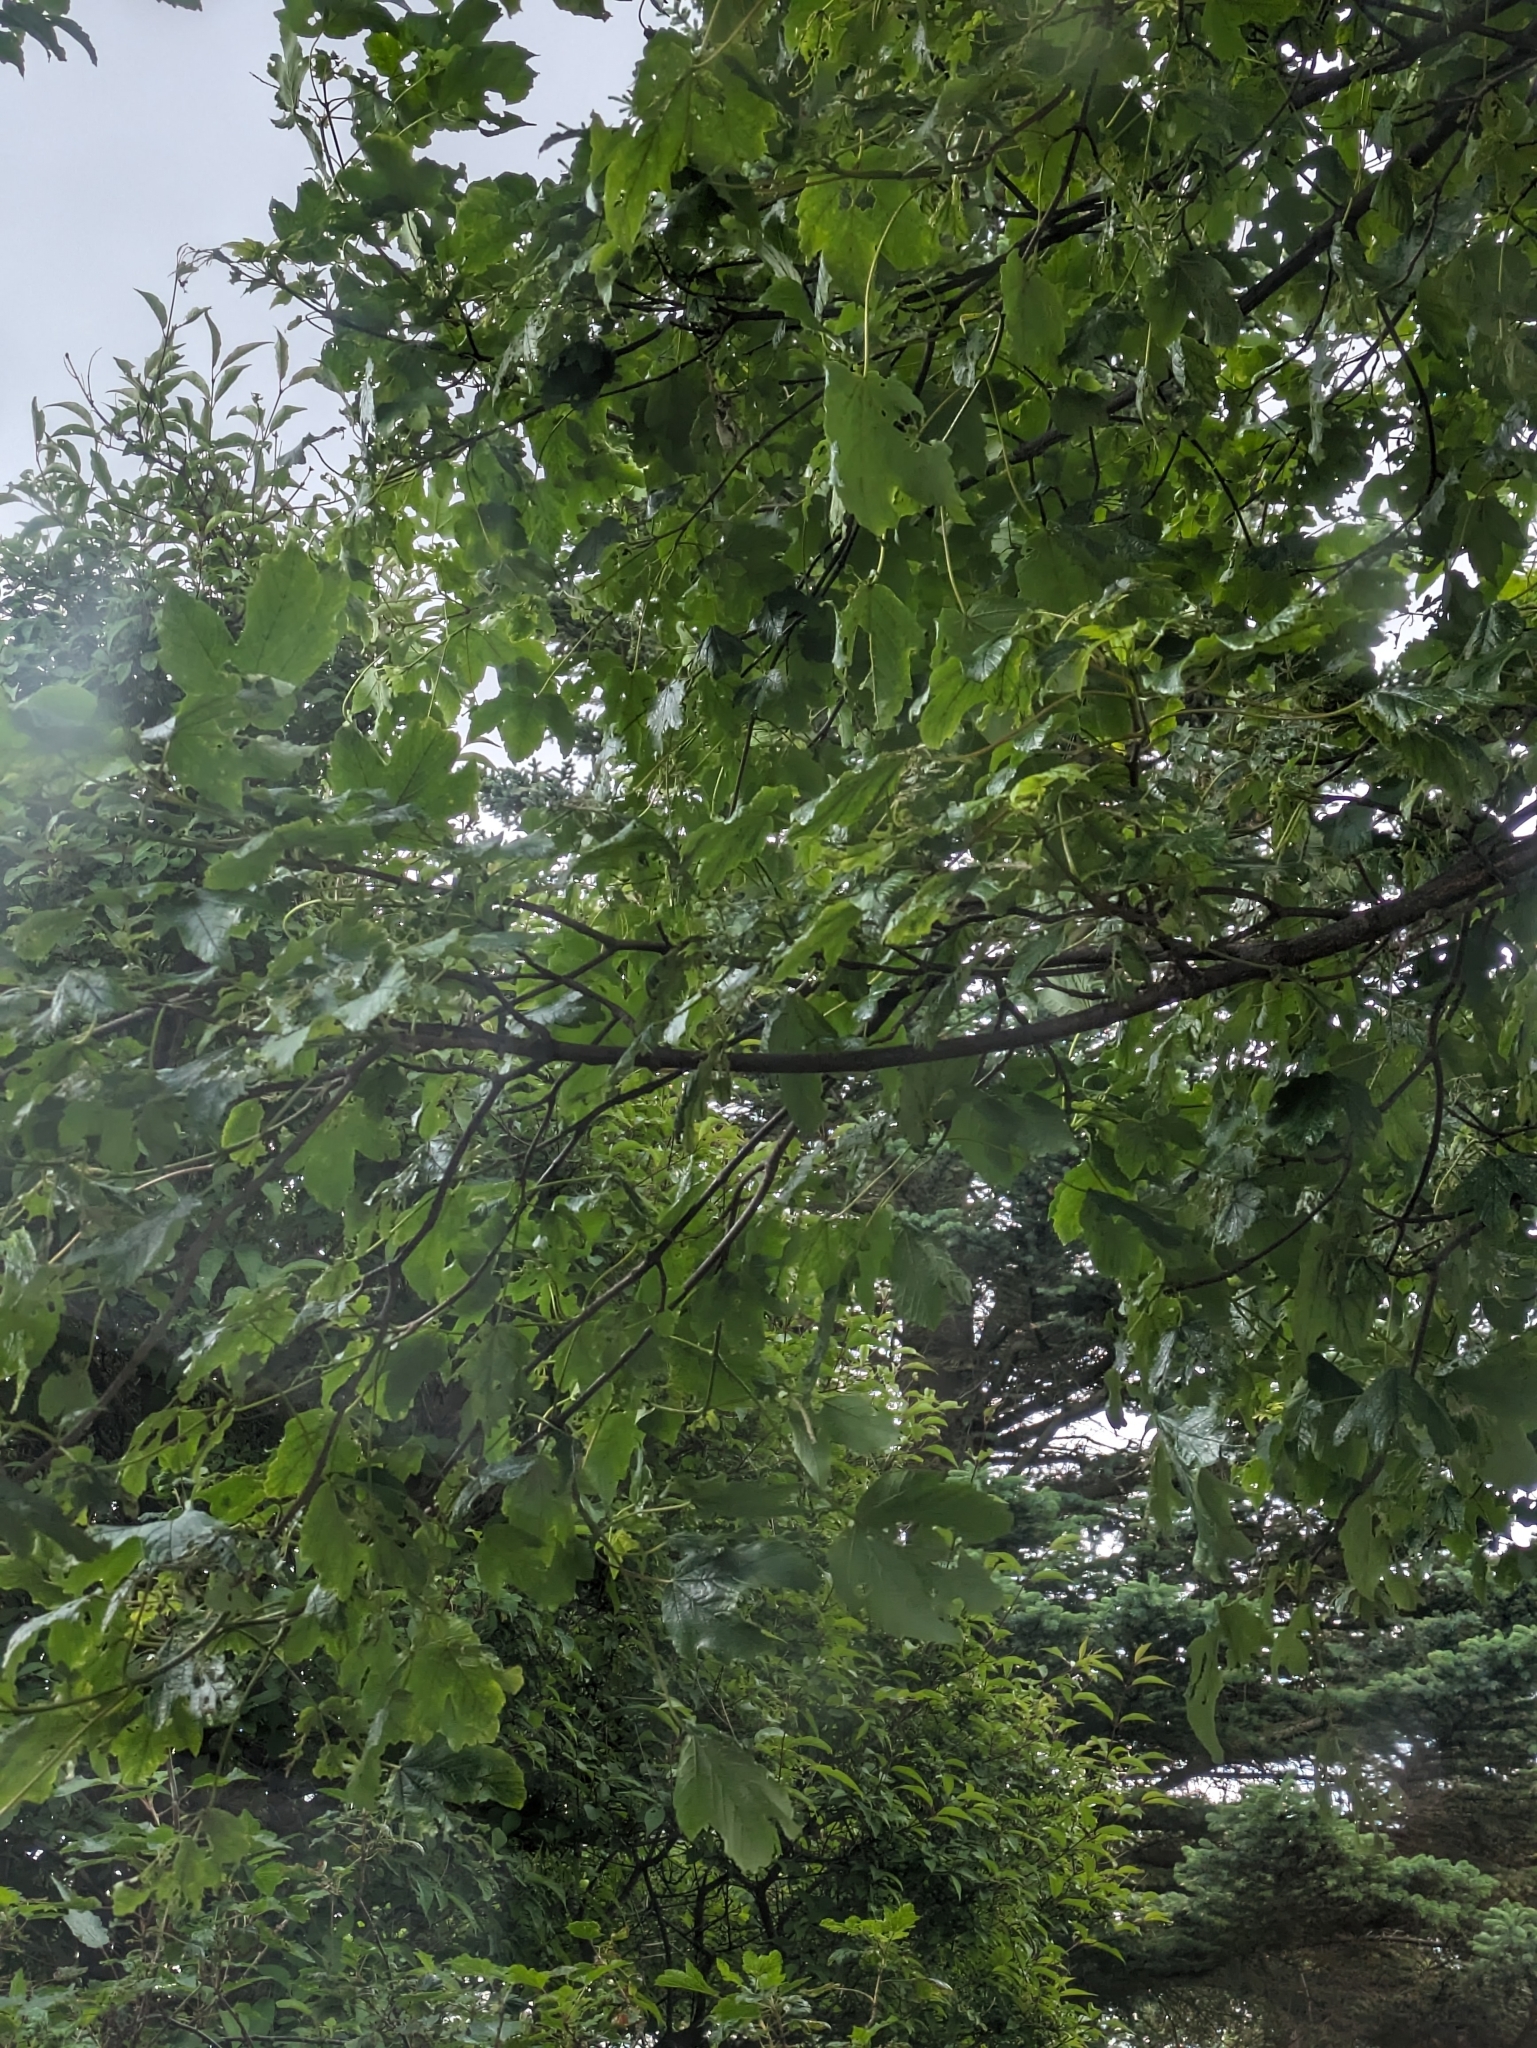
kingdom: Plantae
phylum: Tracheophyta
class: Magnoliopsida
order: Sapindales
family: Sapindaceae
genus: Acer
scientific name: Acer pseudoplatanus
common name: Sycamore
